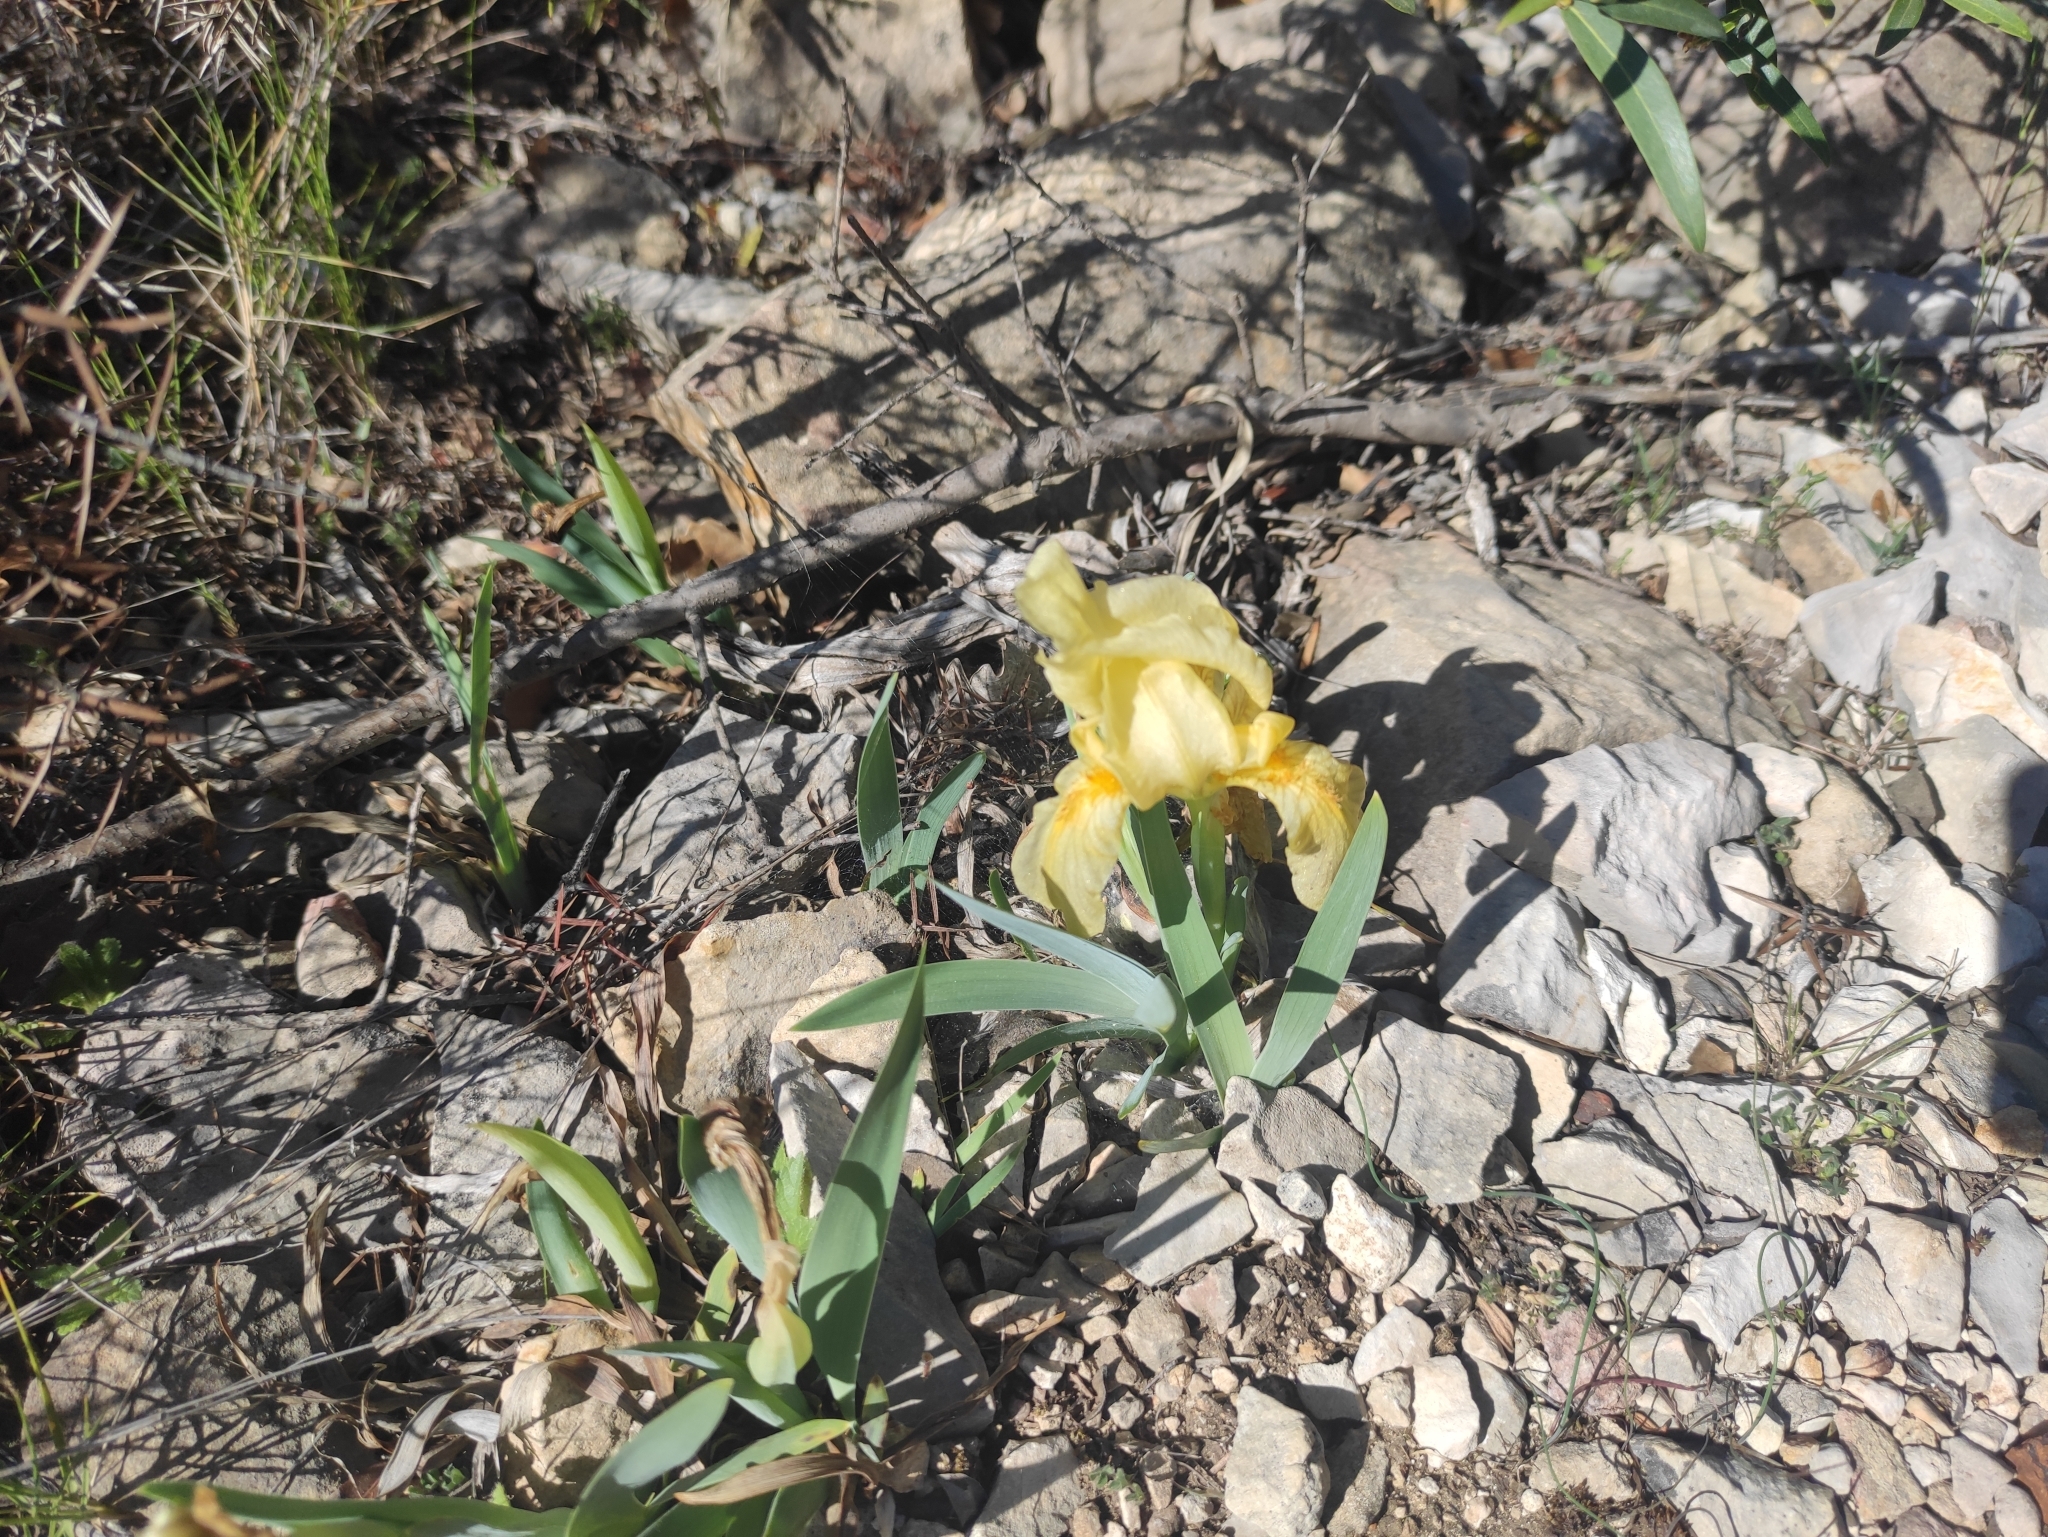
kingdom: Plantae
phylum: Tracheophyta
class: Liliopsida
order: Asparagales
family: Iridaceae
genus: Iris
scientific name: Iris lutescens
